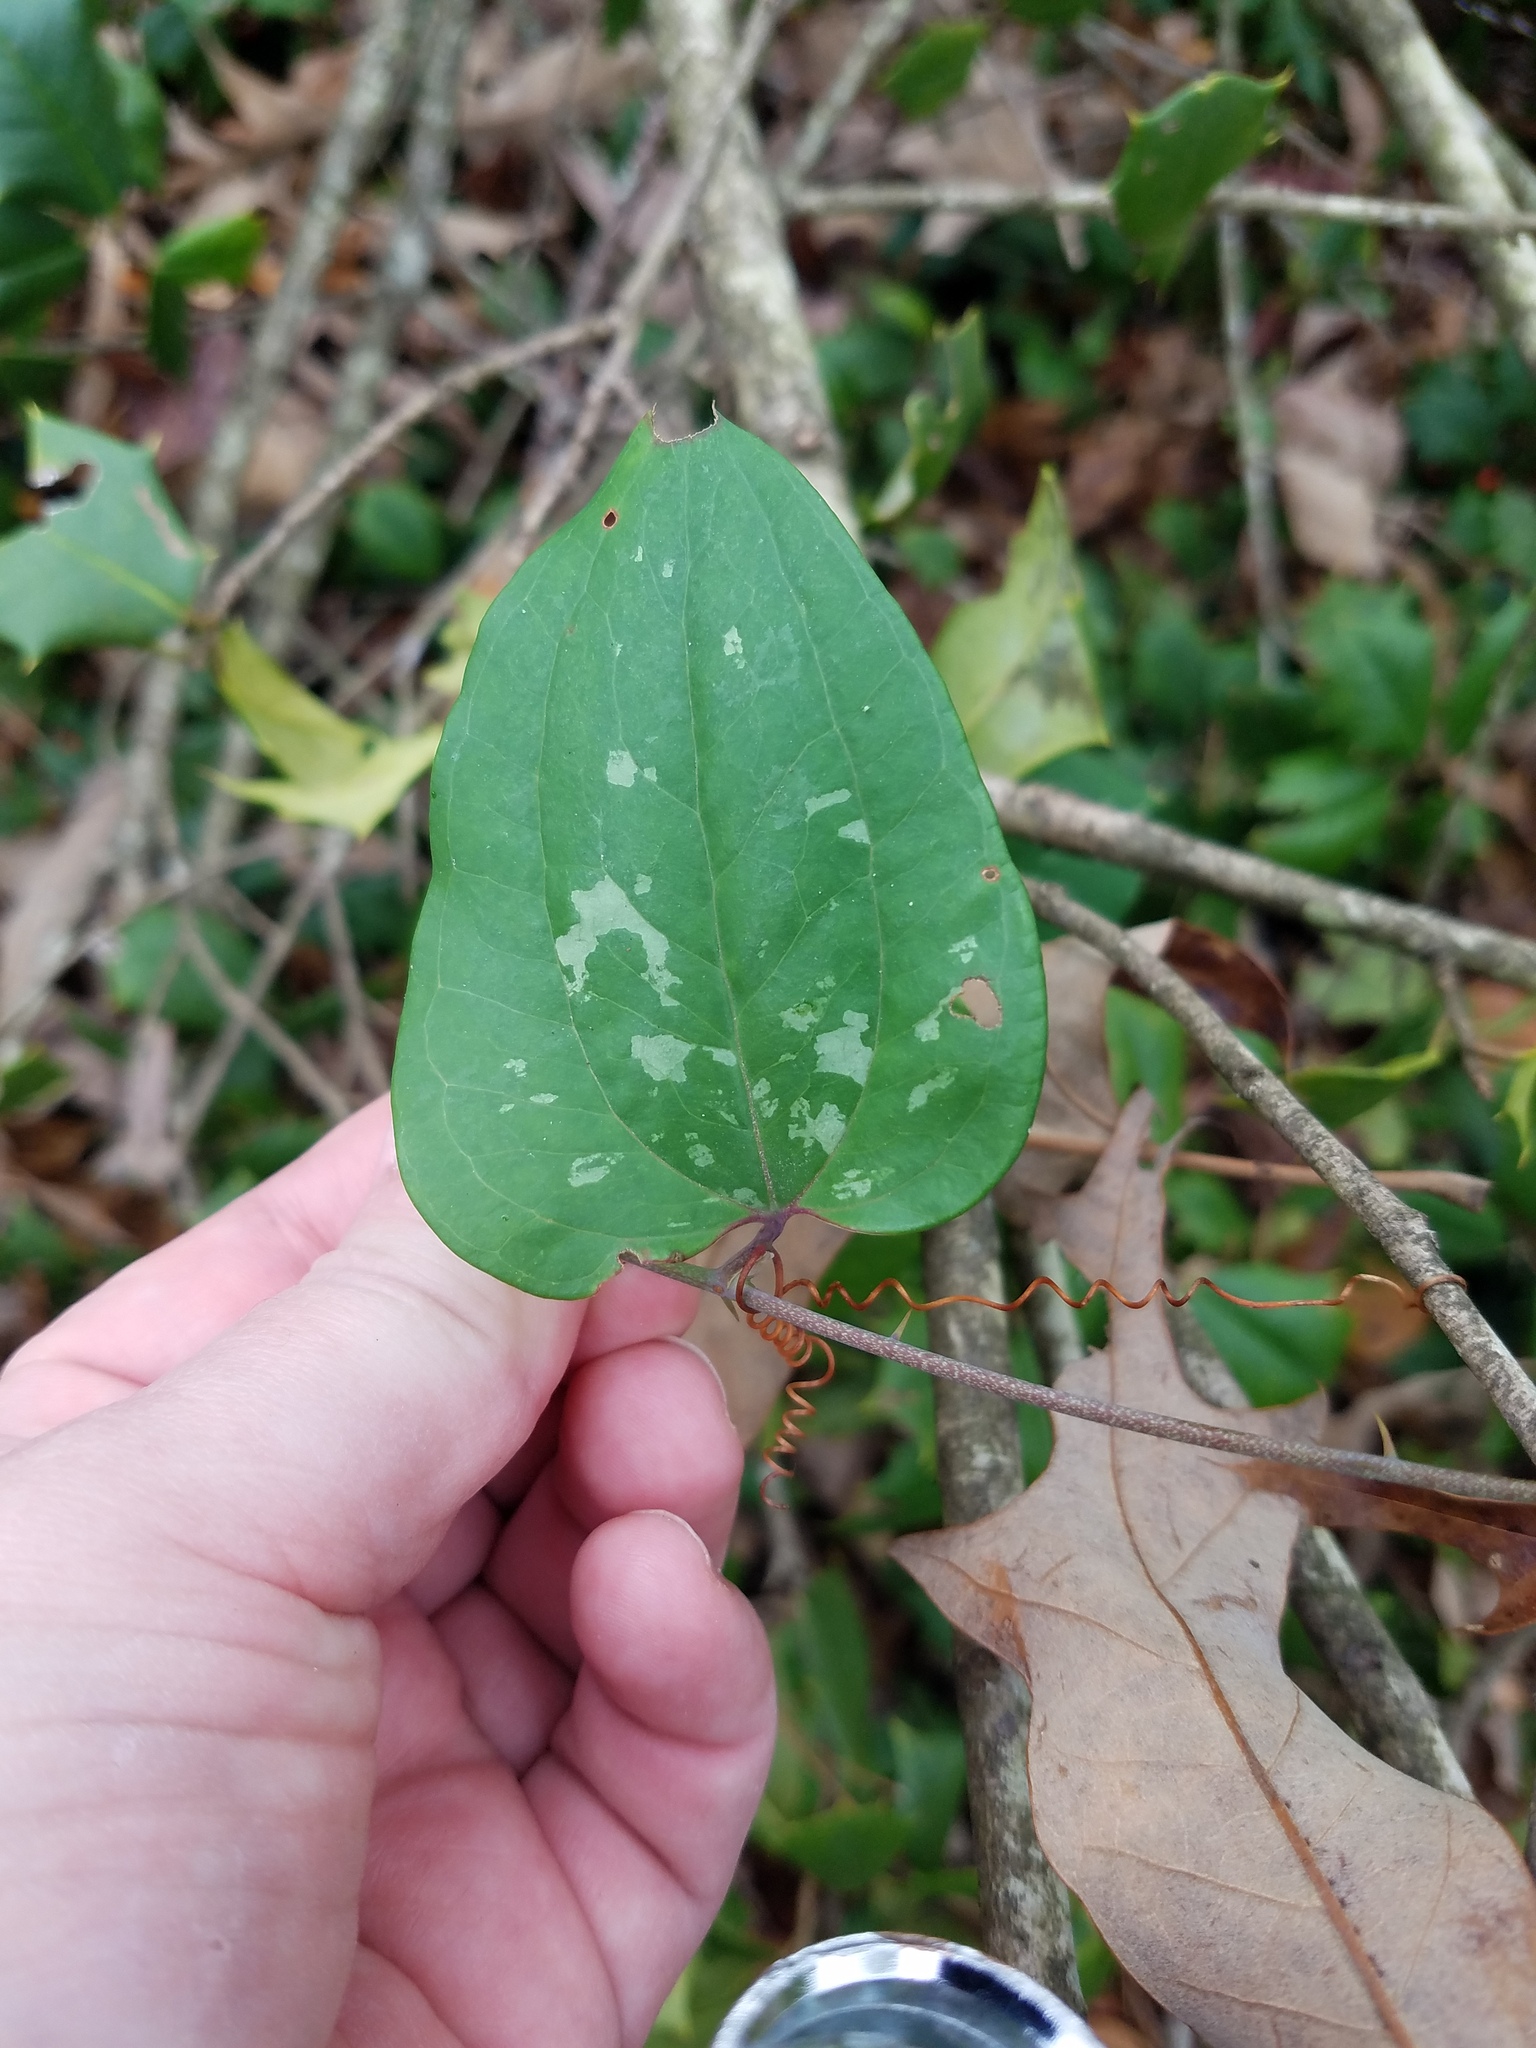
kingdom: Plantae
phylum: Tracheophyta
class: Liliopsida
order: Liliales
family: Smilacaceae
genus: Smilax
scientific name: Smilax glauca
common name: Cat greenbrier
